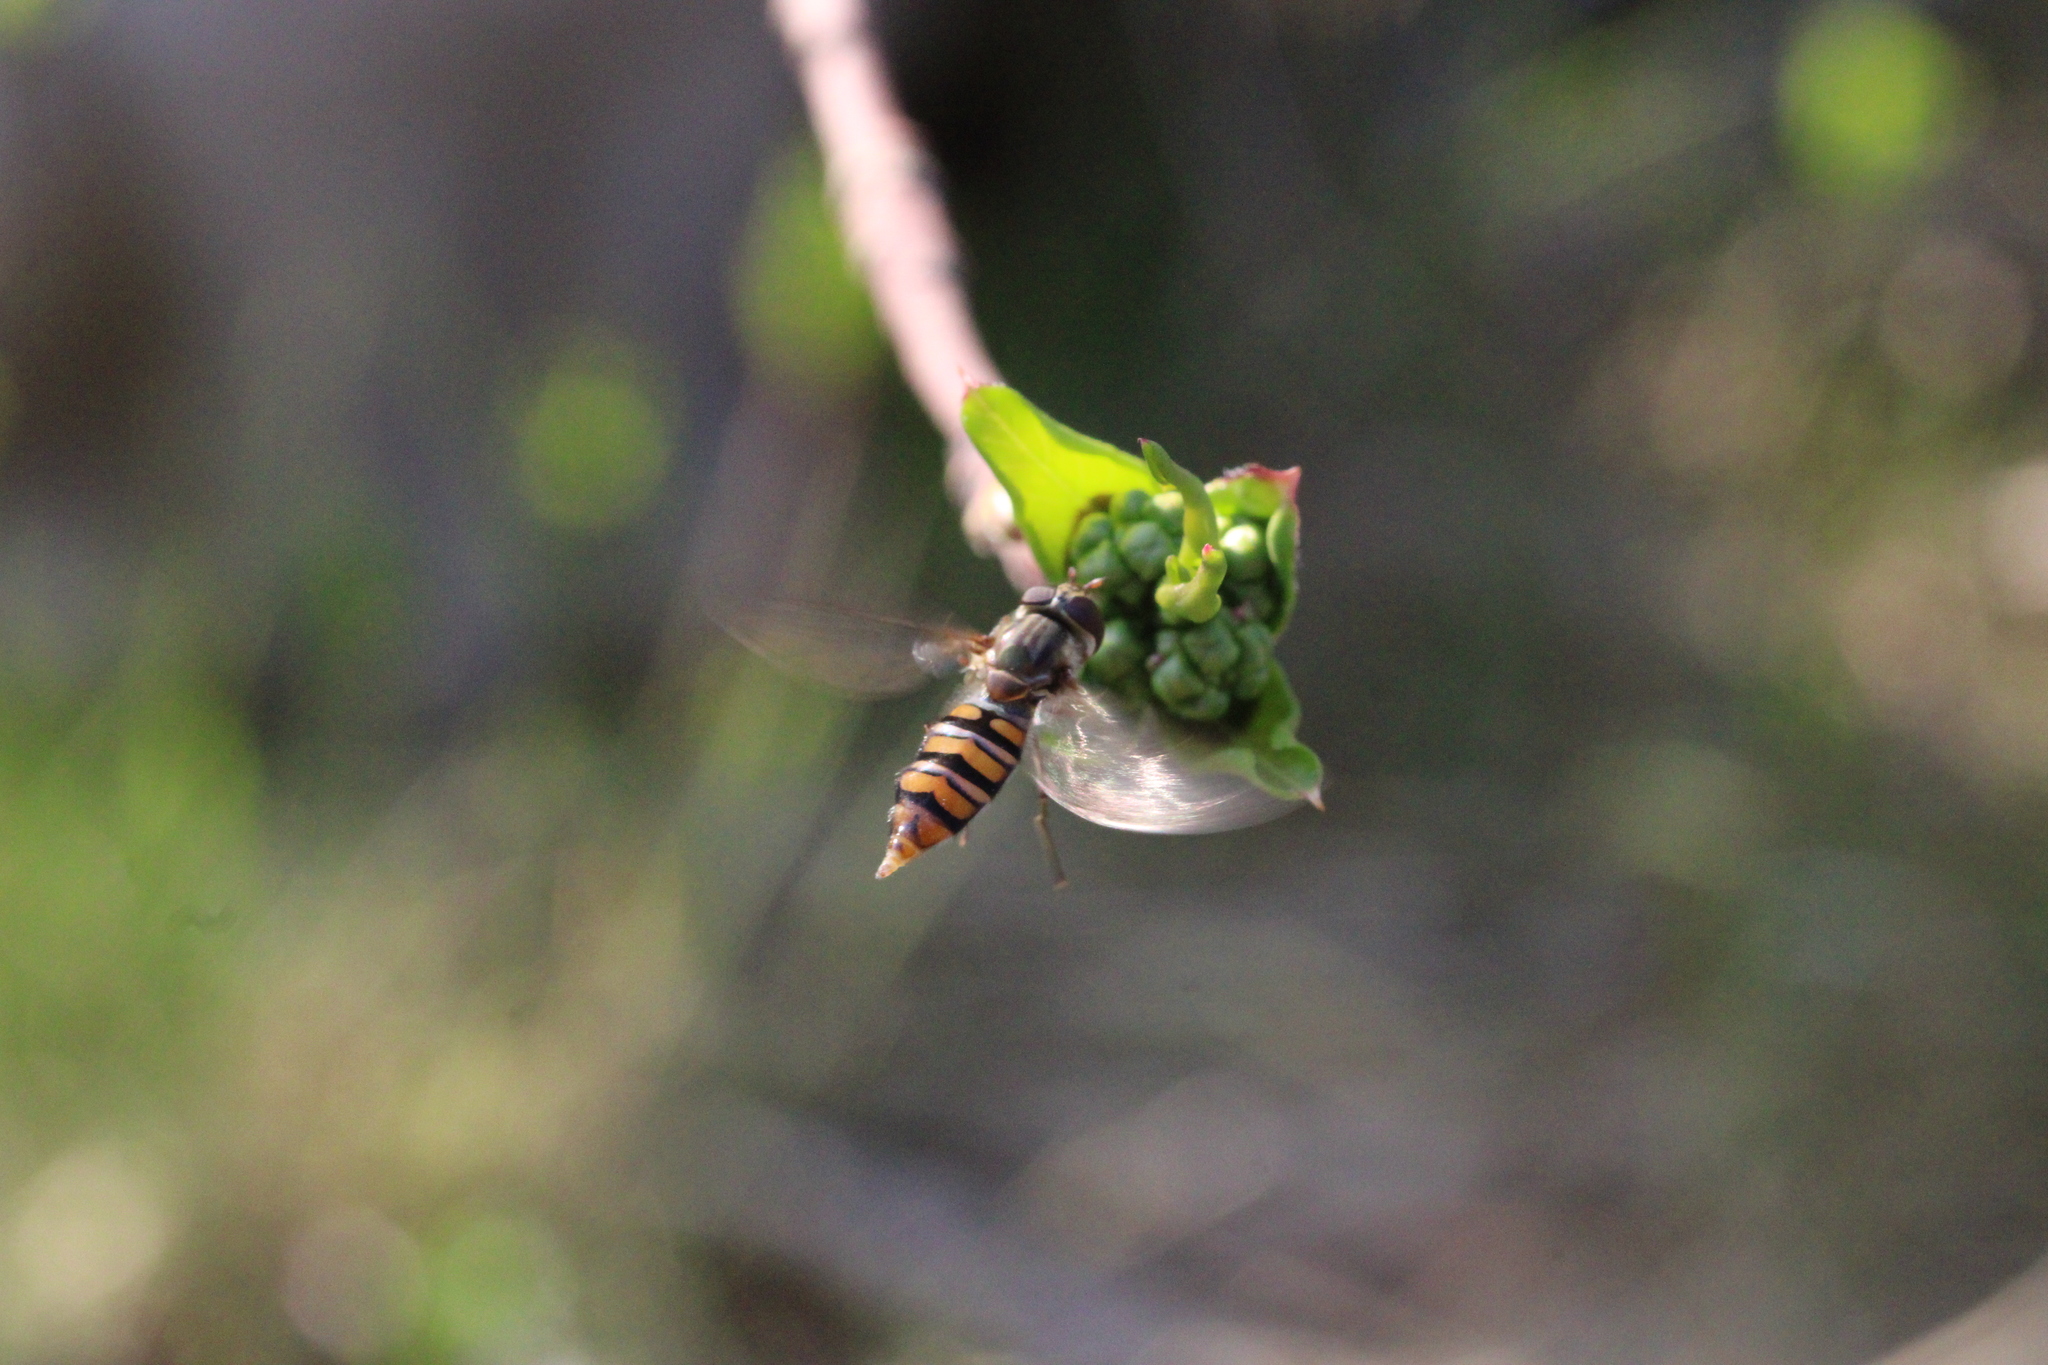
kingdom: Animalia
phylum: Arthropoda
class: Insecta
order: Diptera
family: Syrphidae
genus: Episyrphus
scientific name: Episyrphus balteatus
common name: Marmalade hoverfly
